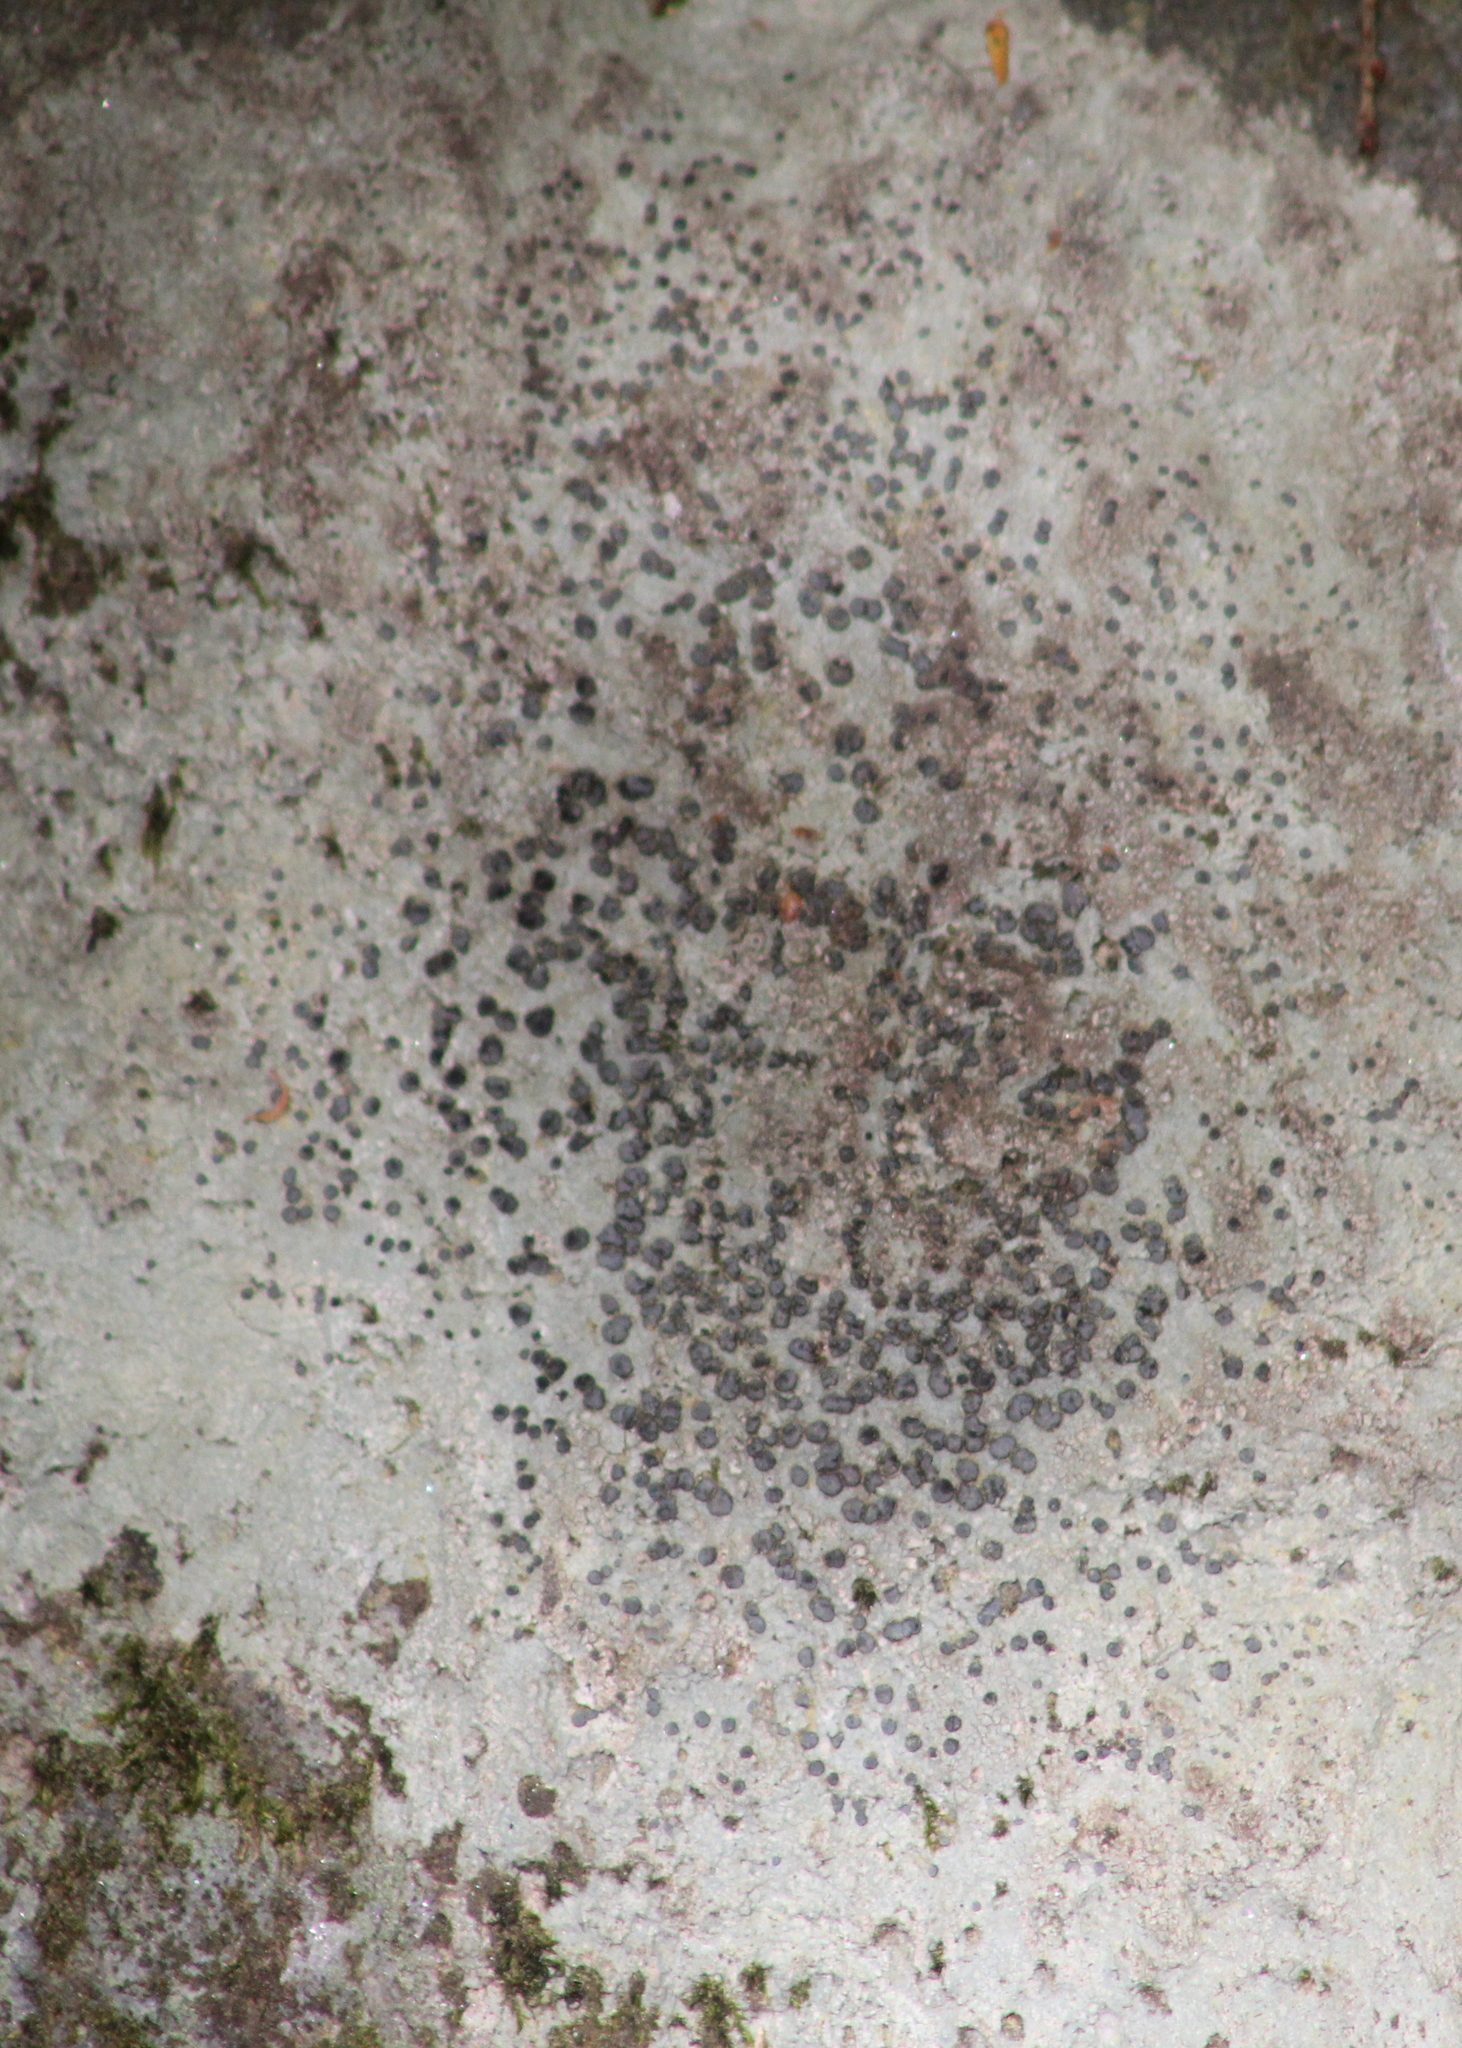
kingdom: Fungi
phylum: Ascomycota
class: Lecanoromycetes
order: Lecideales
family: Lecideaceae
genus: Porpidia
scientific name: Porpidia albocaerulescens
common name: Smokey-eyed boulder lichen
